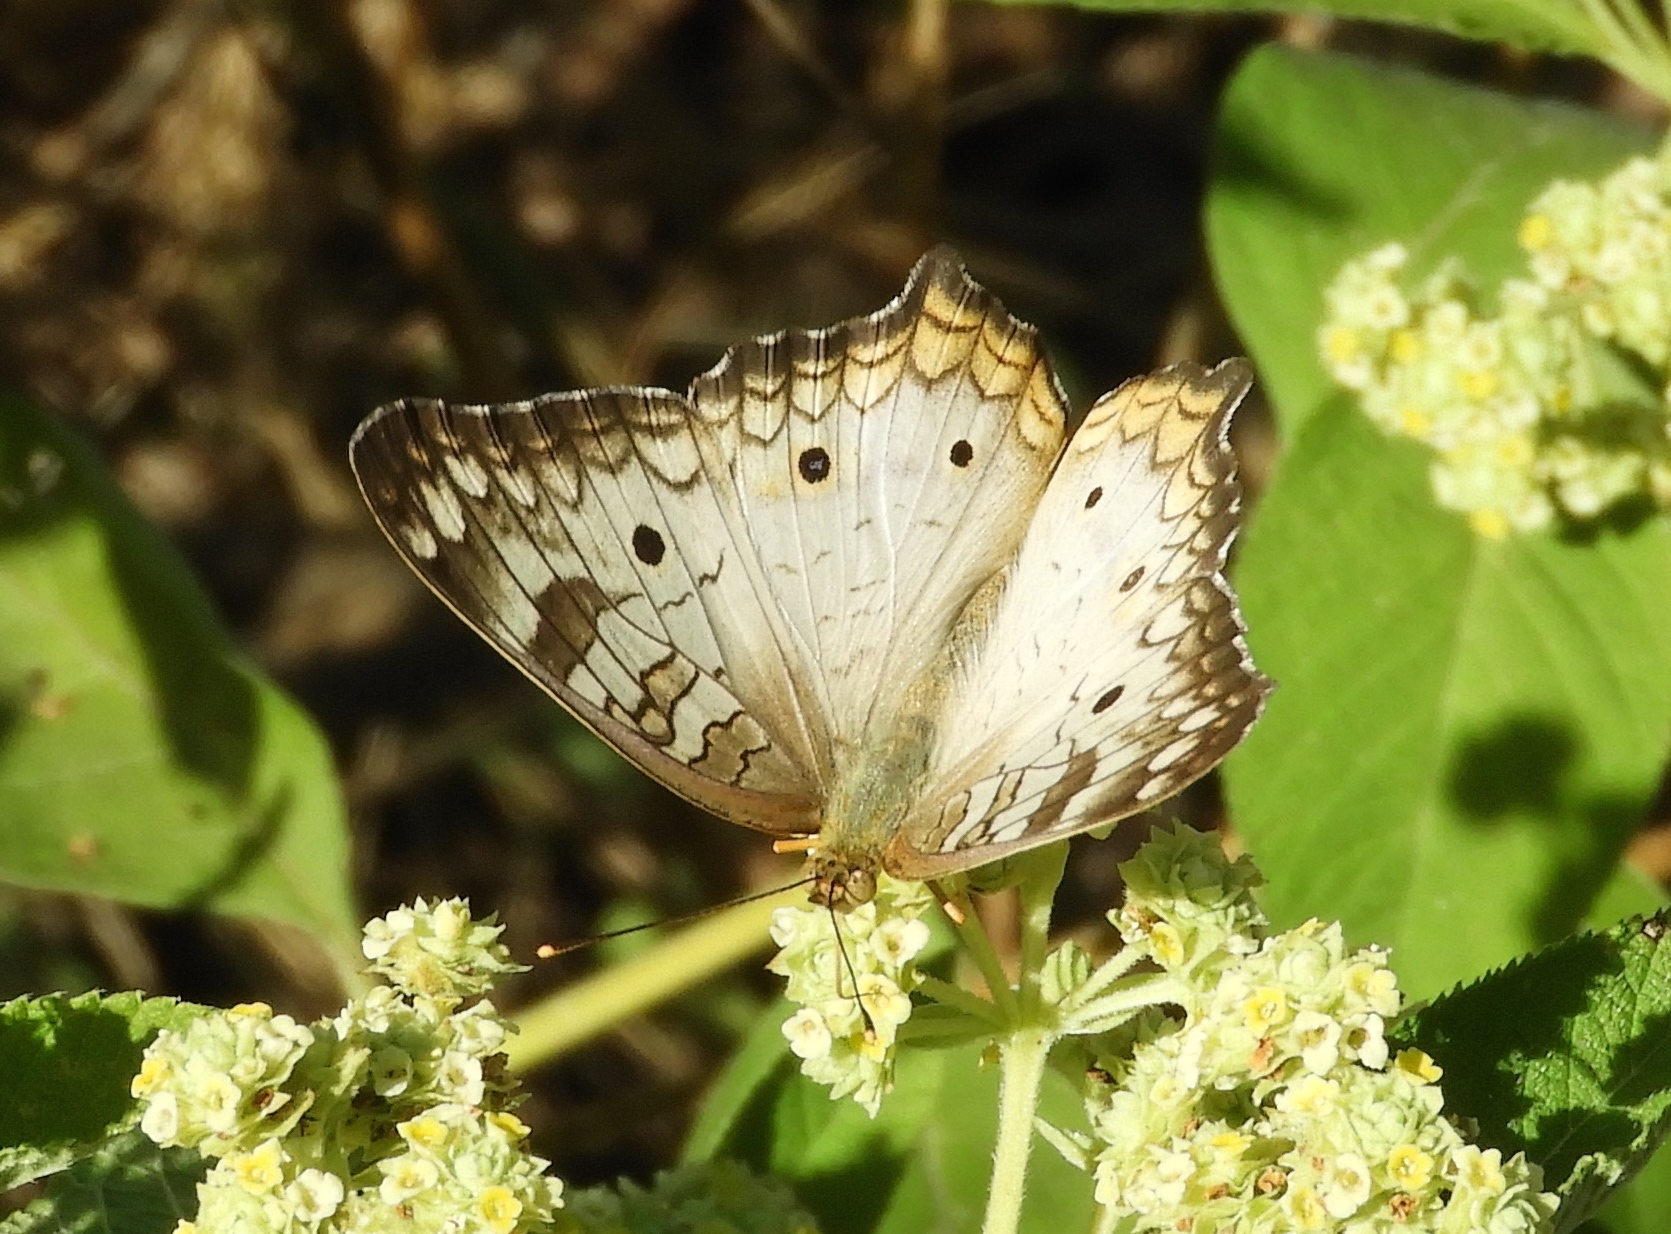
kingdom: Animalia
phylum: Arthropoda
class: Insecta
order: Lepidoptera
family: Nymphalidae
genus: Anartia
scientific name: Anartia jatrophae
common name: White peacock
